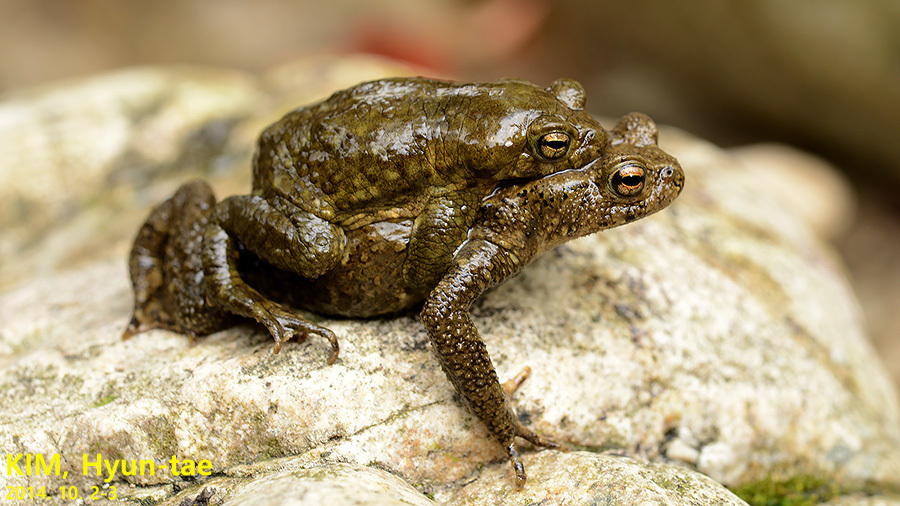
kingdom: Animalia
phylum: Chordata
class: Amphibia
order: Anura
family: Bufonidae
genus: Bufo
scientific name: Bufo stejnegeri
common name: Water toad
